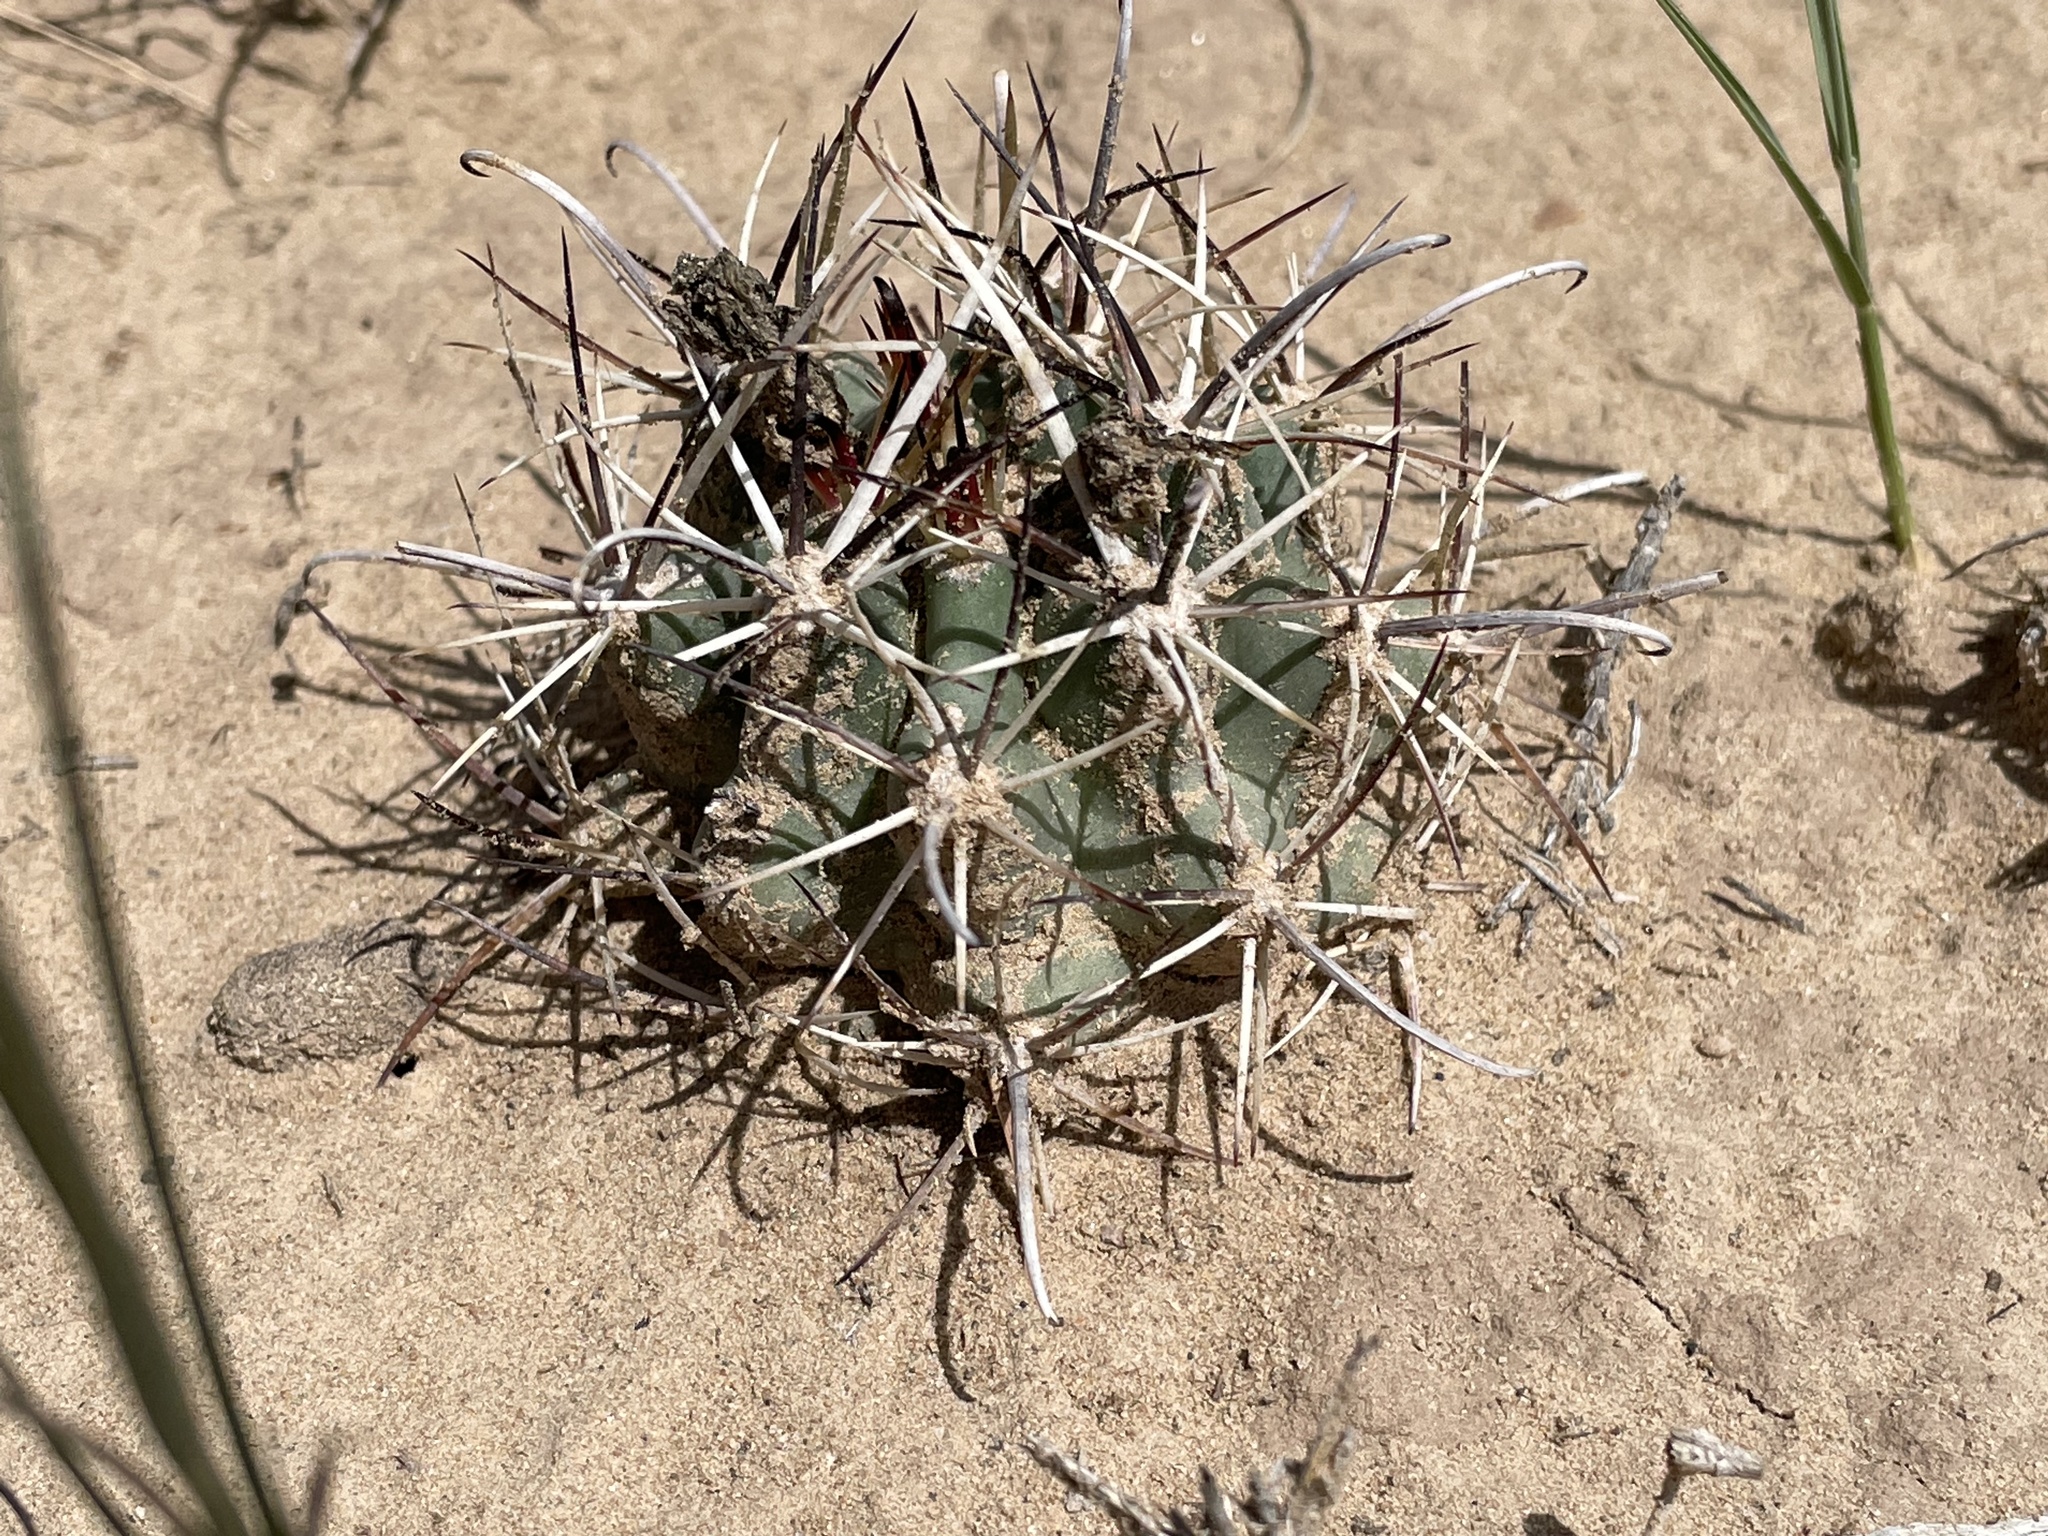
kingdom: Plantae
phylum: Tracheophyta
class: Magnoliopsida
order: Caryophyllales
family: Cactaceae
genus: Sclerocactus
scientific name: Sclerocactus cloverae
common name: Clover's eagle-claw cactus
